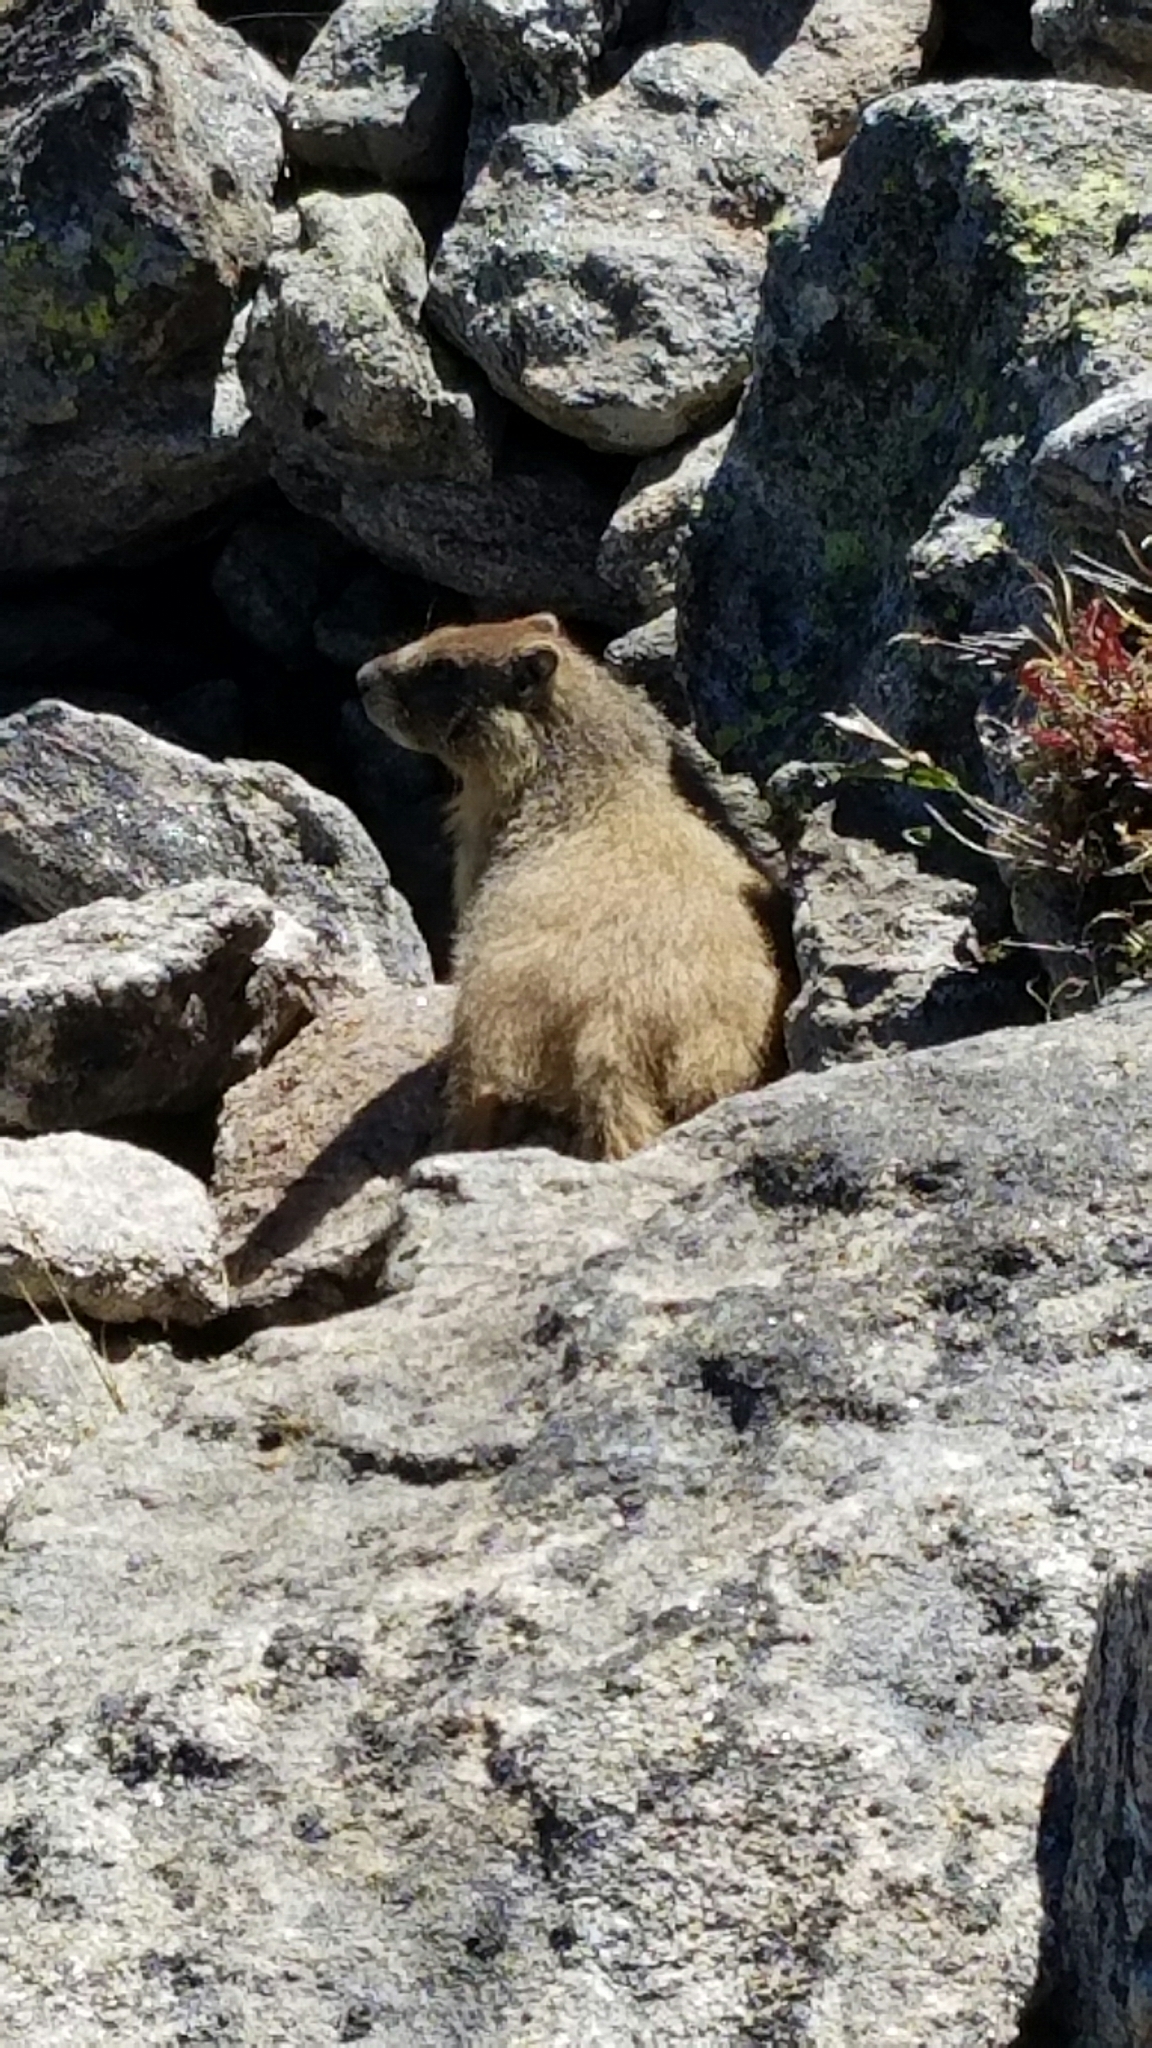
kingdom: Animalia
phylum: Chordata
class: Mammalia
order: Rodentia
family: Sciuridae
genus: Marmota
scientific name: Marmota flaviventris
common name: Yellow-bellied marmot
